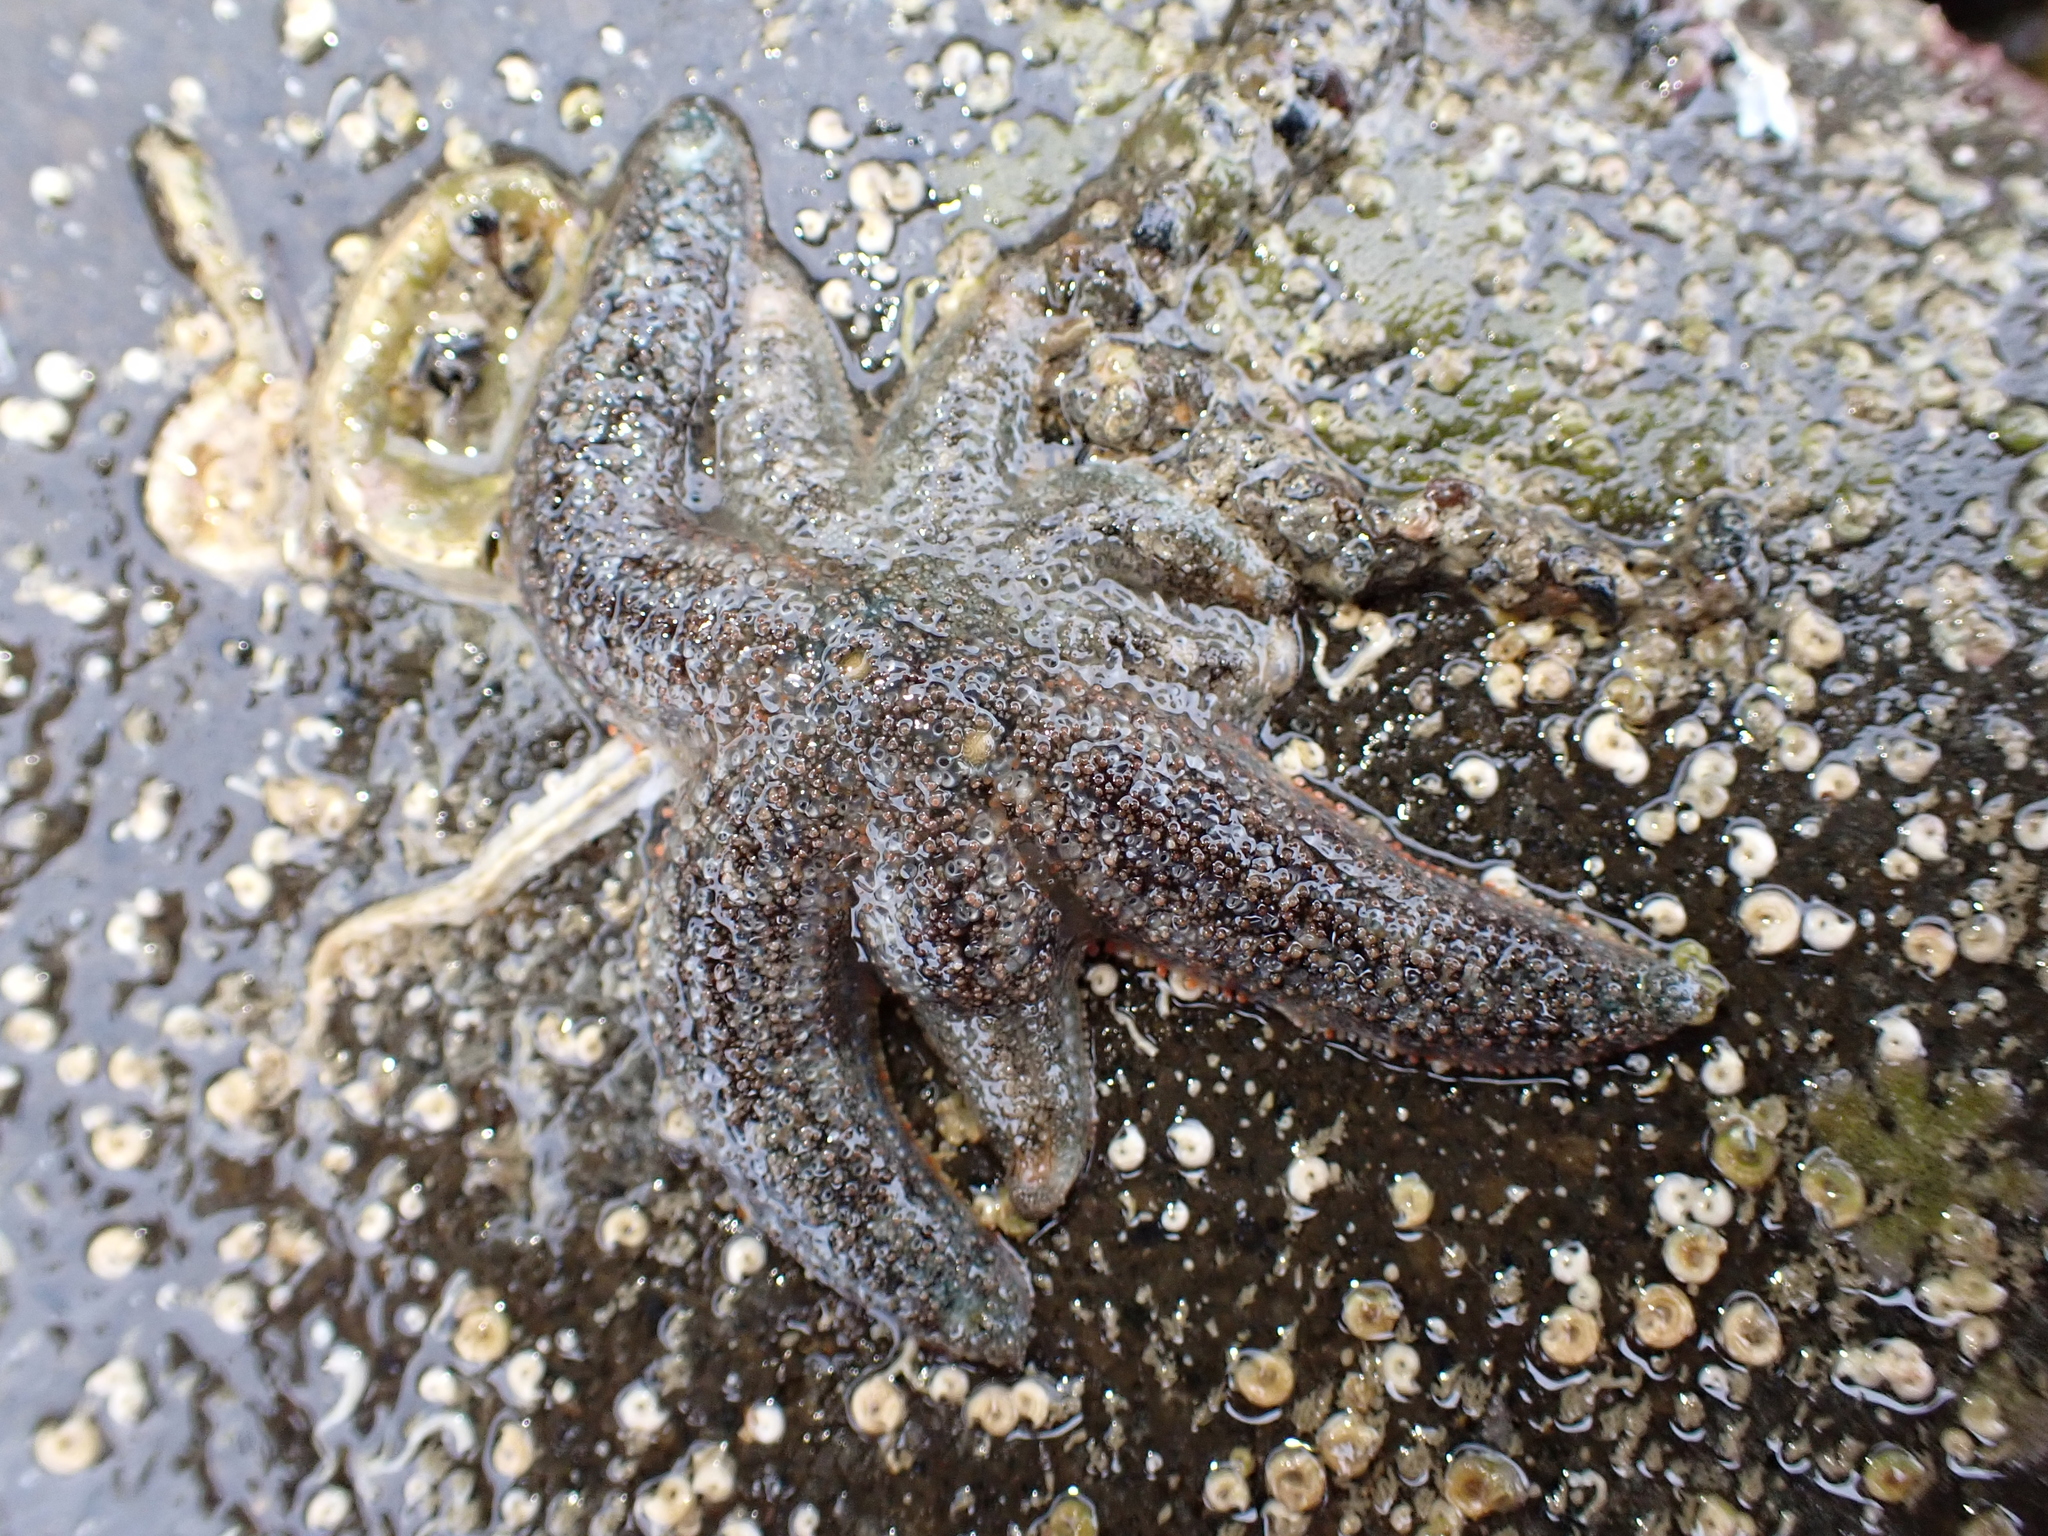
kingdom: Animalia
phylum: Echinodermata
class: Asteroidea
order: Forcipulatida
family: Stichasteridae
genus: Allostichaster
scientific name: Allostichaster polyplax
